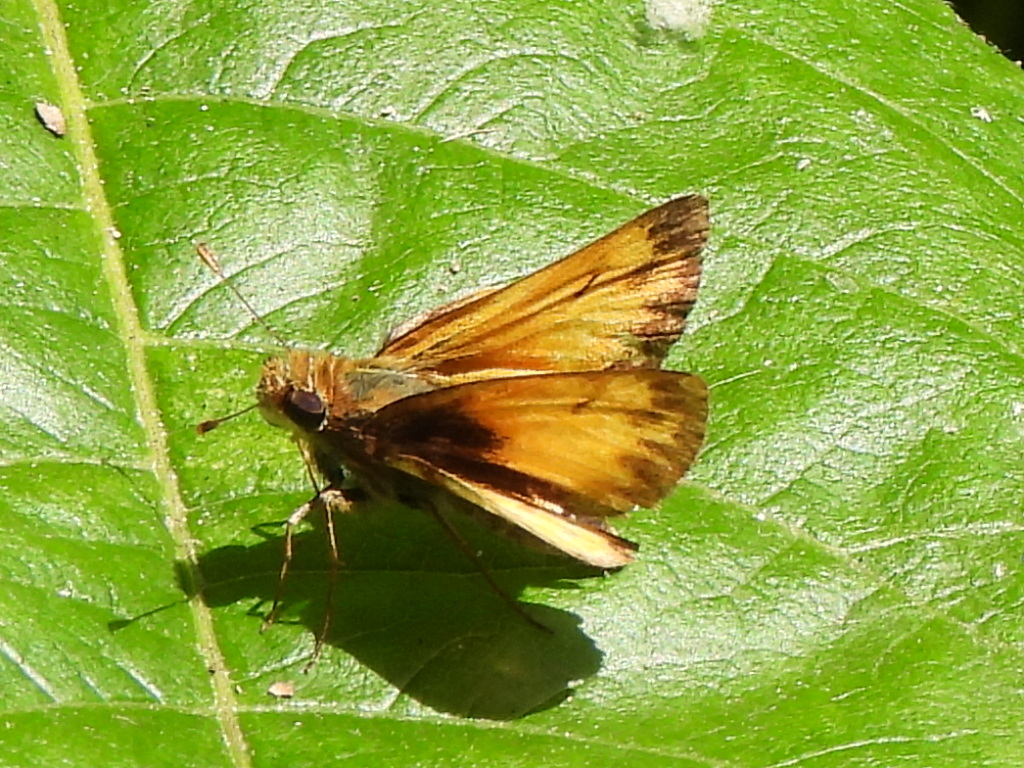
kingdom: Animalia
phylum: Arthropoda
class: Insecta
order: Lepidoptera
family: Hesperiidae
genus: Lon
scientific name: Lon zabulon
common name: Zabulon skipper
